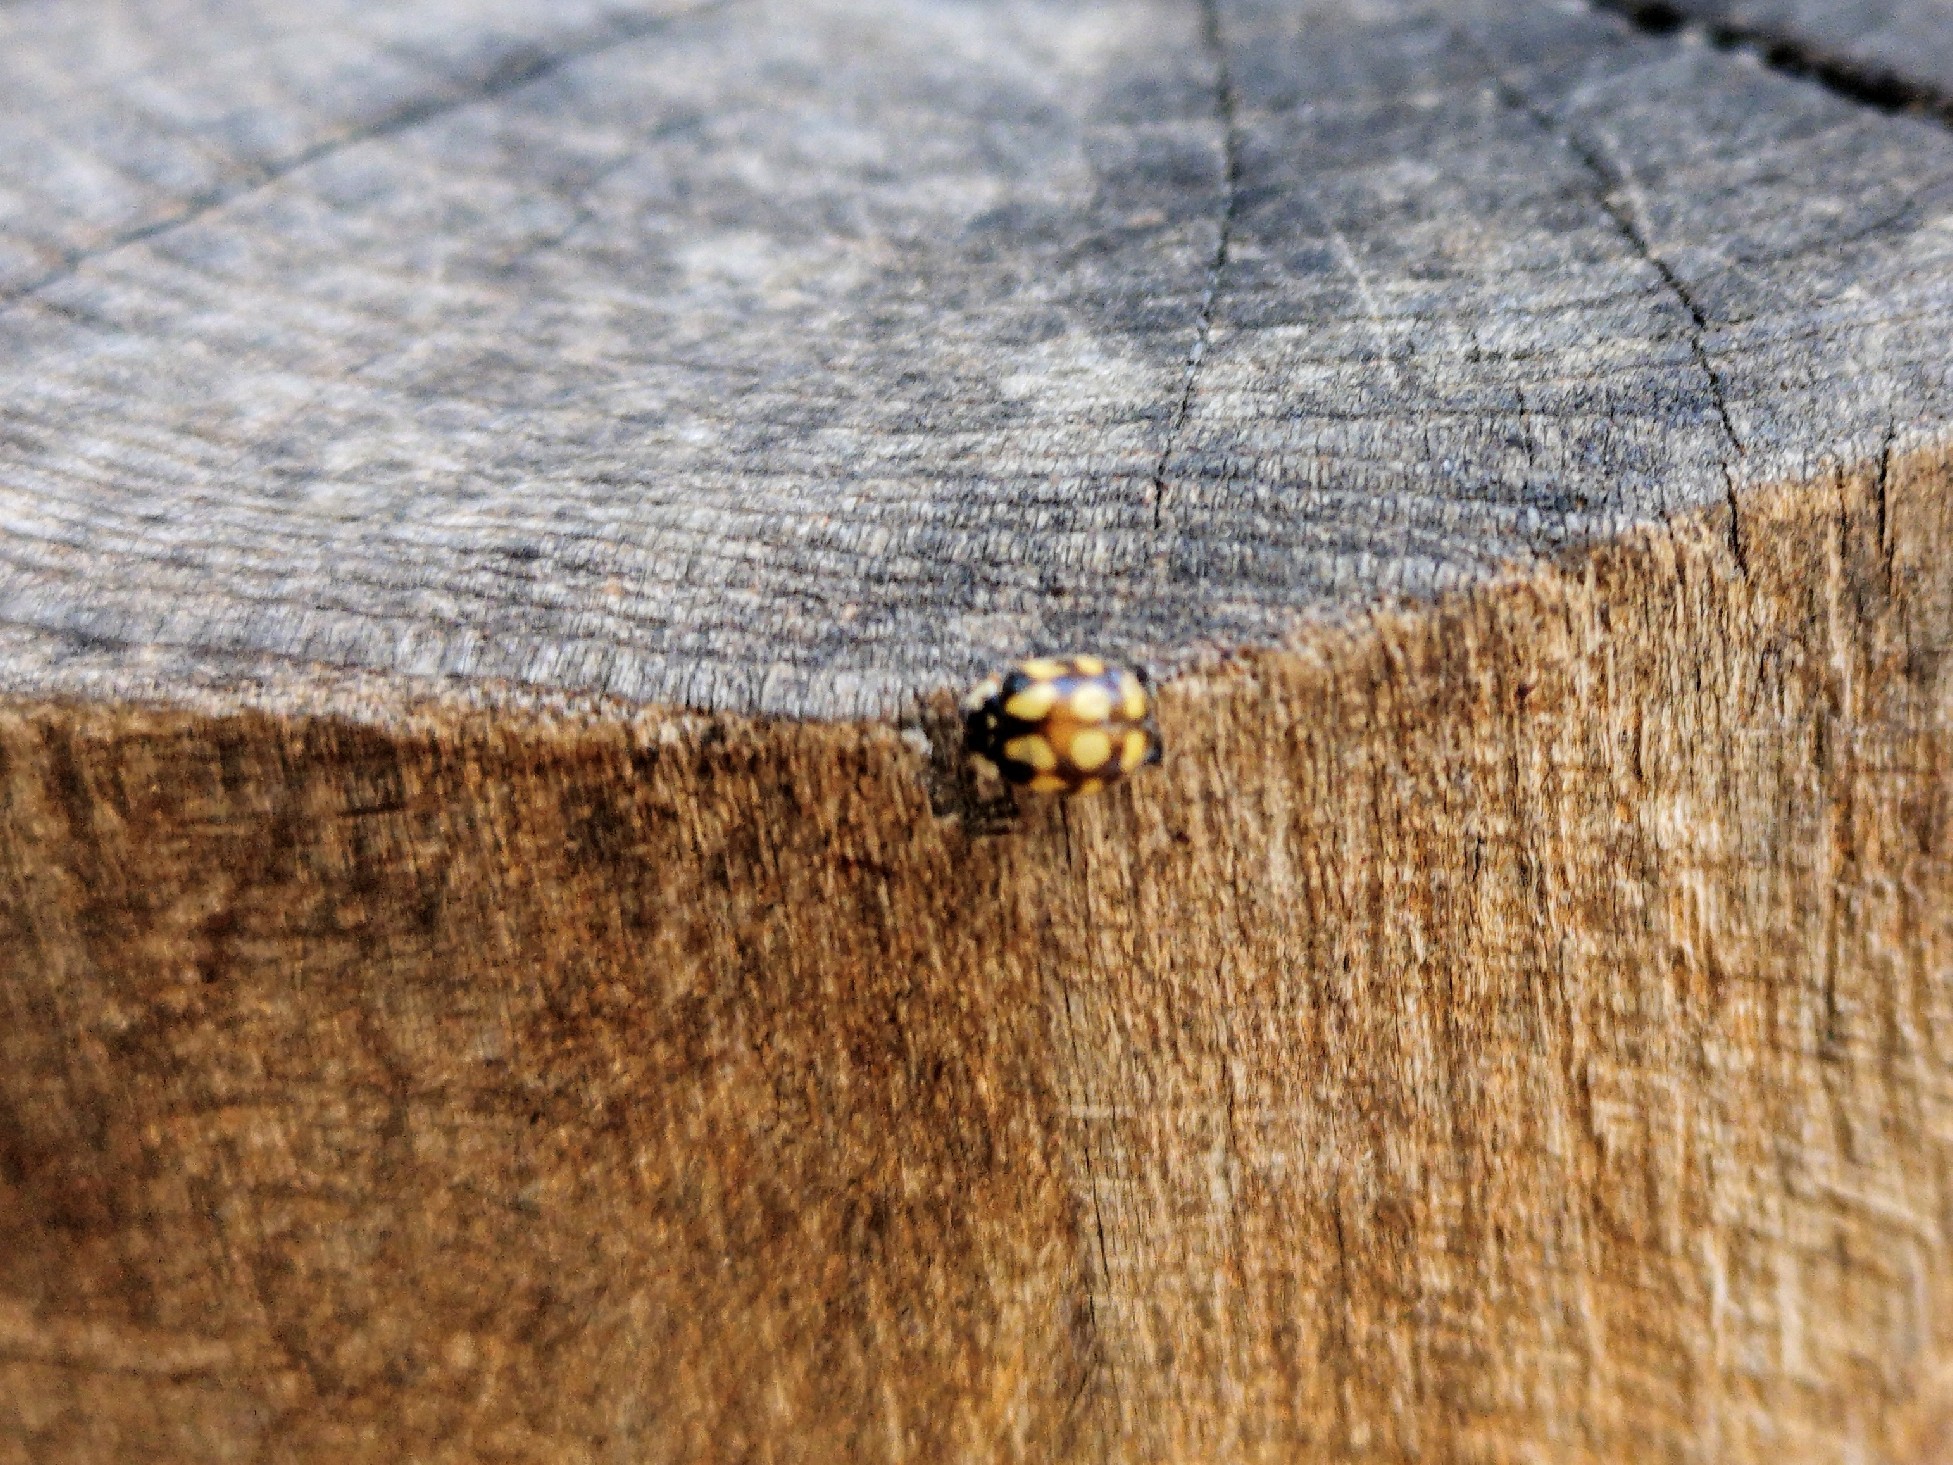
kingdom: Animalia
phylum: Arthropoda
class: Insecta
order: Coleoptera
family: Coccinellidae
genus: Adalia
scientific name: Adalia decempunctata
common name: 10-spot ladybird
